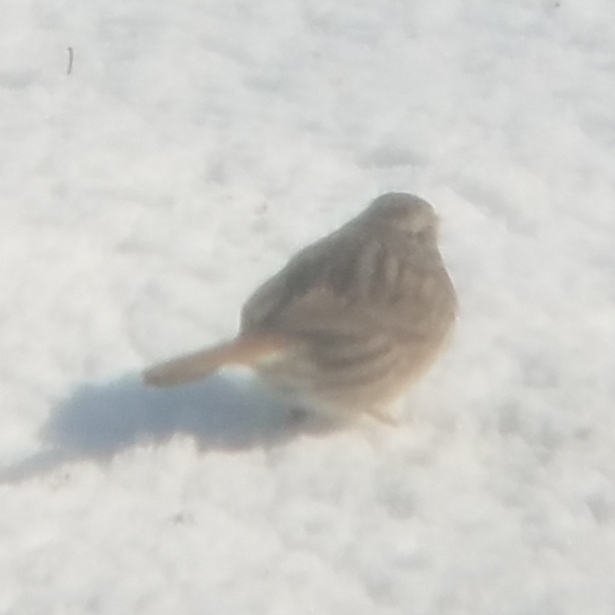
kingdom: Animalia
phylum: Chordata
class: Aves
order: Passeriformes
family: Passerellidae
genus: Melospiza
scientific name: Melospiza melodia
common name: Song sparrow
